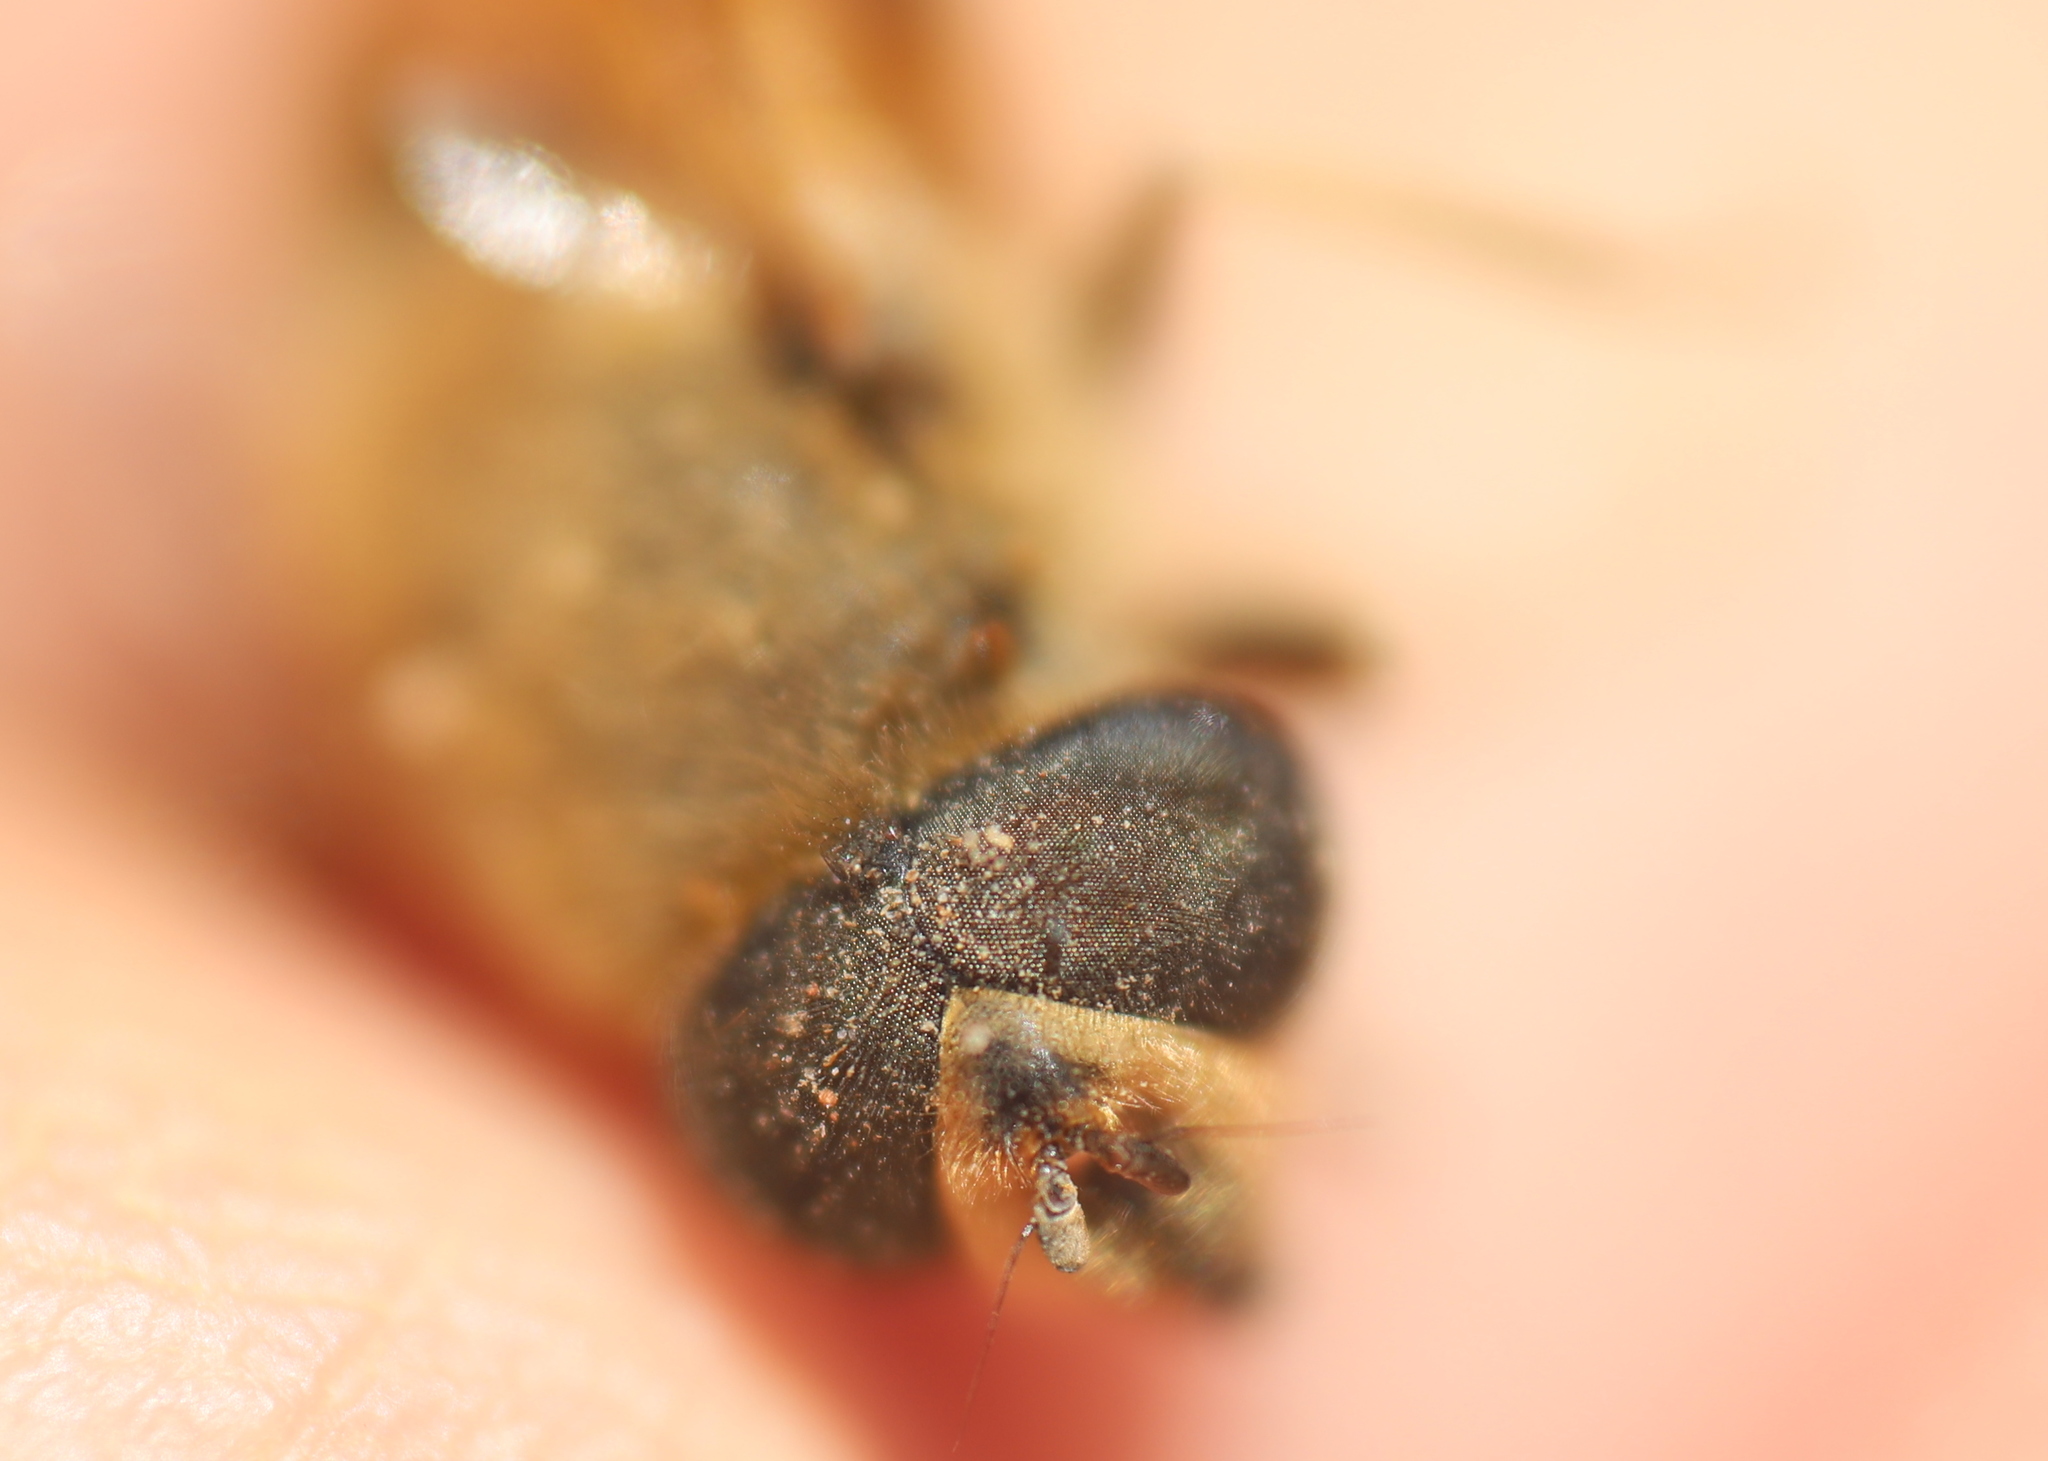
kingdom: Animalia
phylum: Arthropoda
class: Insecta
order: Diptera
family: Syrphidae
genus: Eristalis
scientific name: Eristalis tenax
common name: Drone fly
